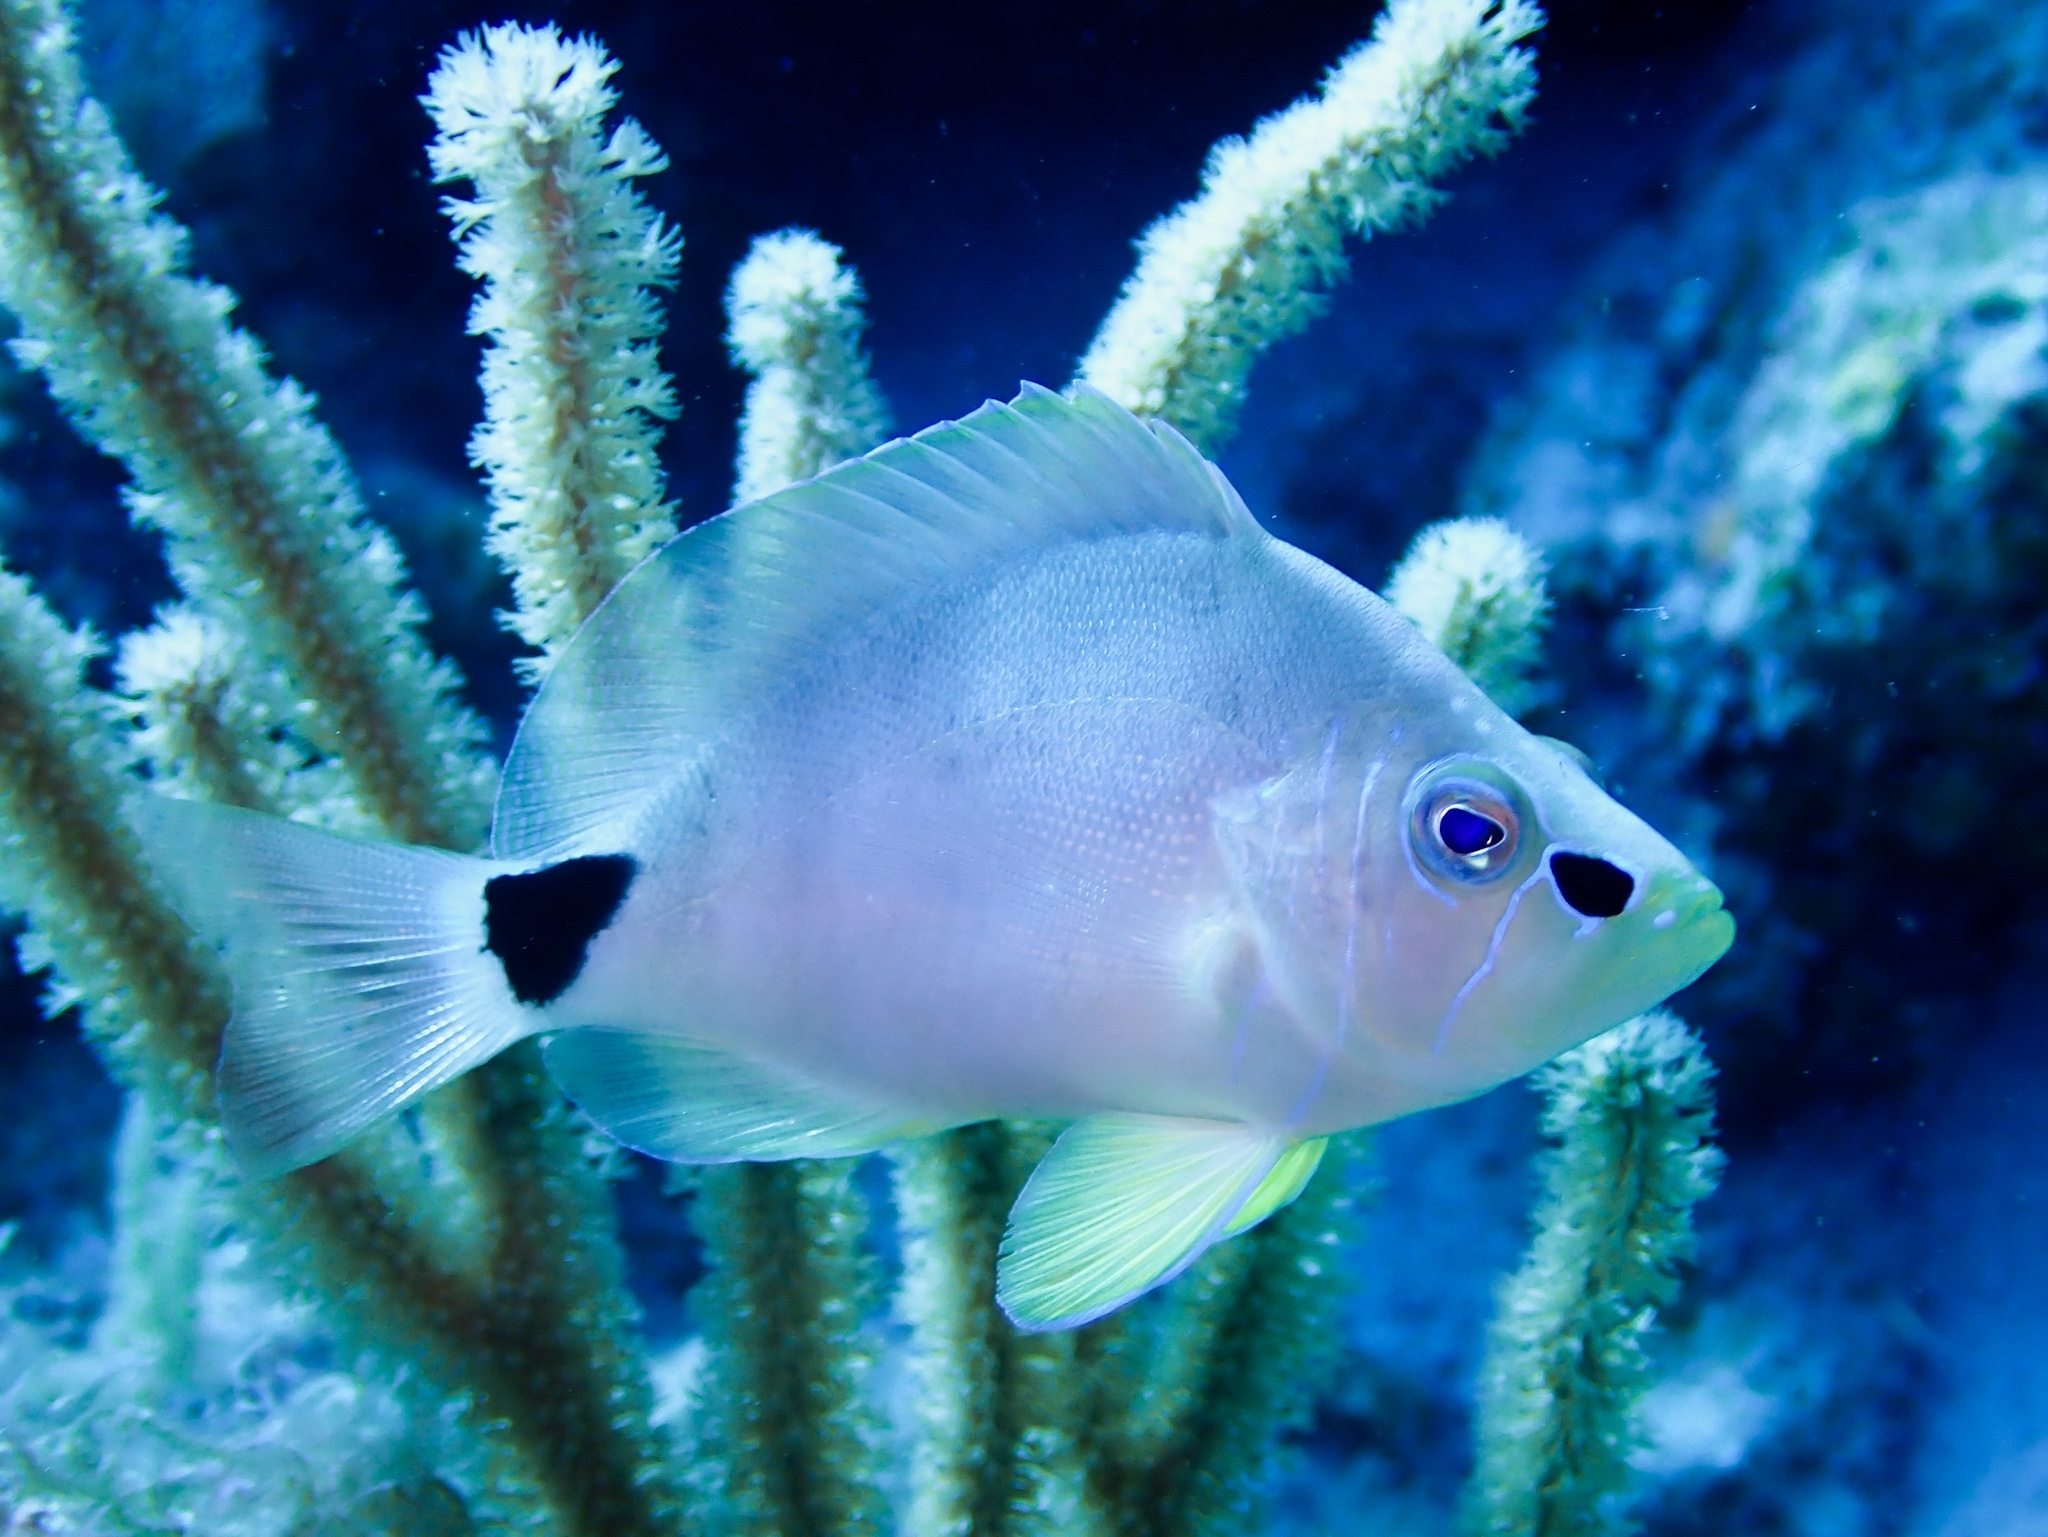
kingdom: Animalia
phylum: Chordata
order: Perciformes
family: Serranidae
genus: Hypoplectrus
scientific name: Hypoplectrus unicolor
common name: Butter hamlet
